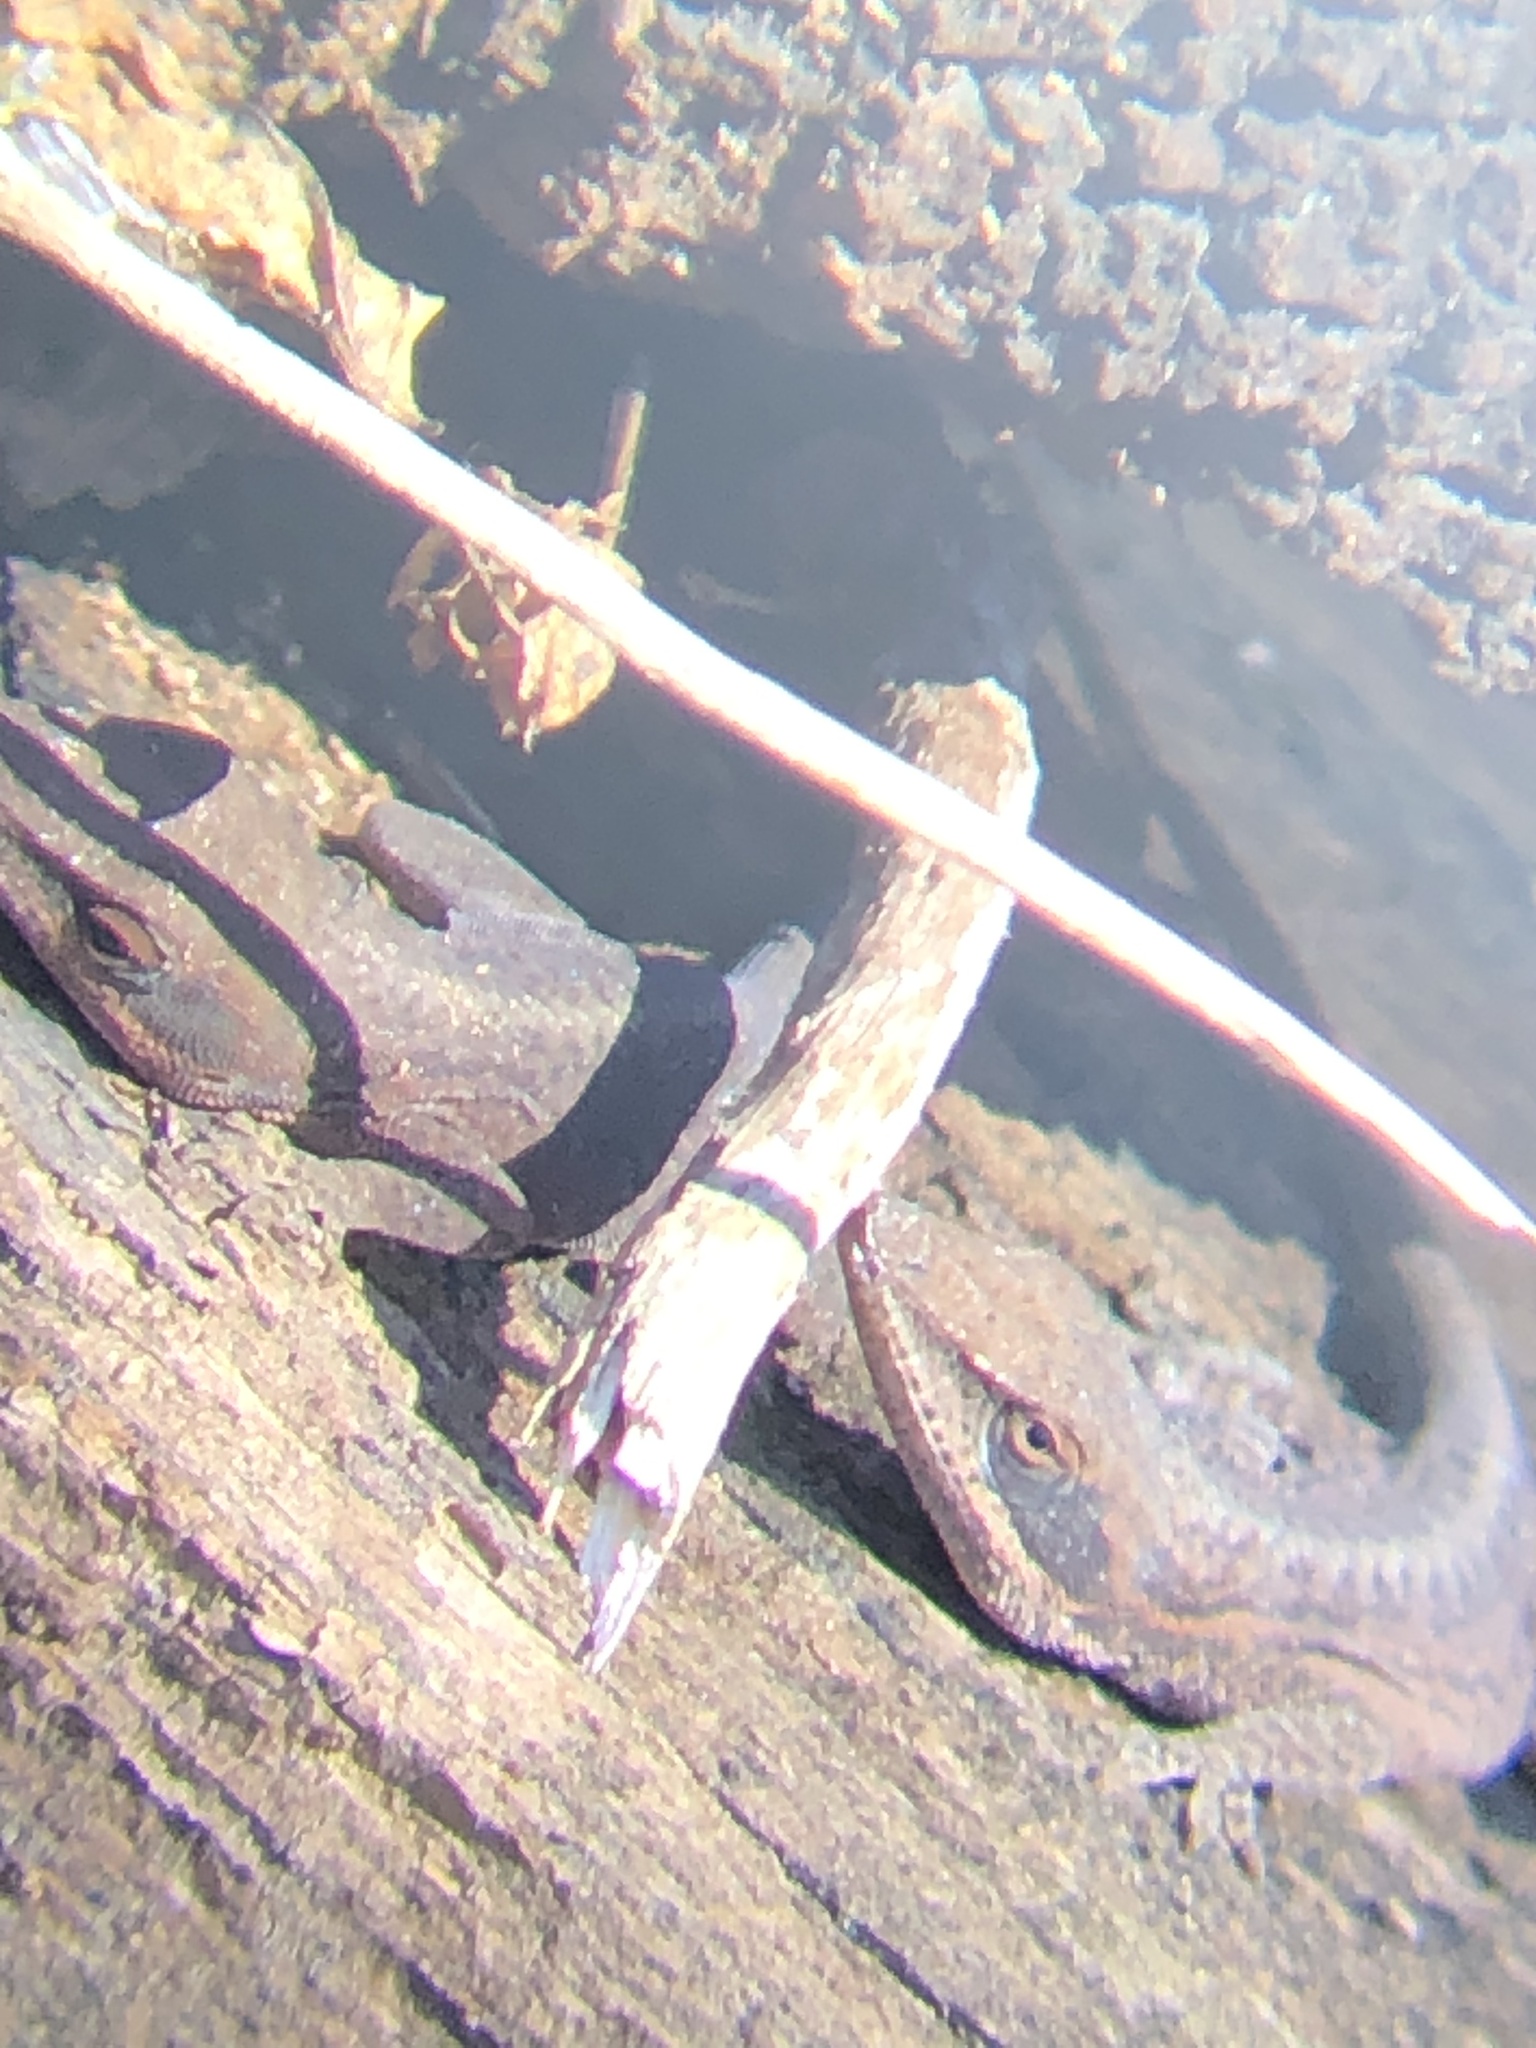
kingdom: Animalia
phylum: Chordata
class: Squamata
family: Dactyloidae
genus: Anolis
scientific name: Anolis carolinensis
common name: Green anole
